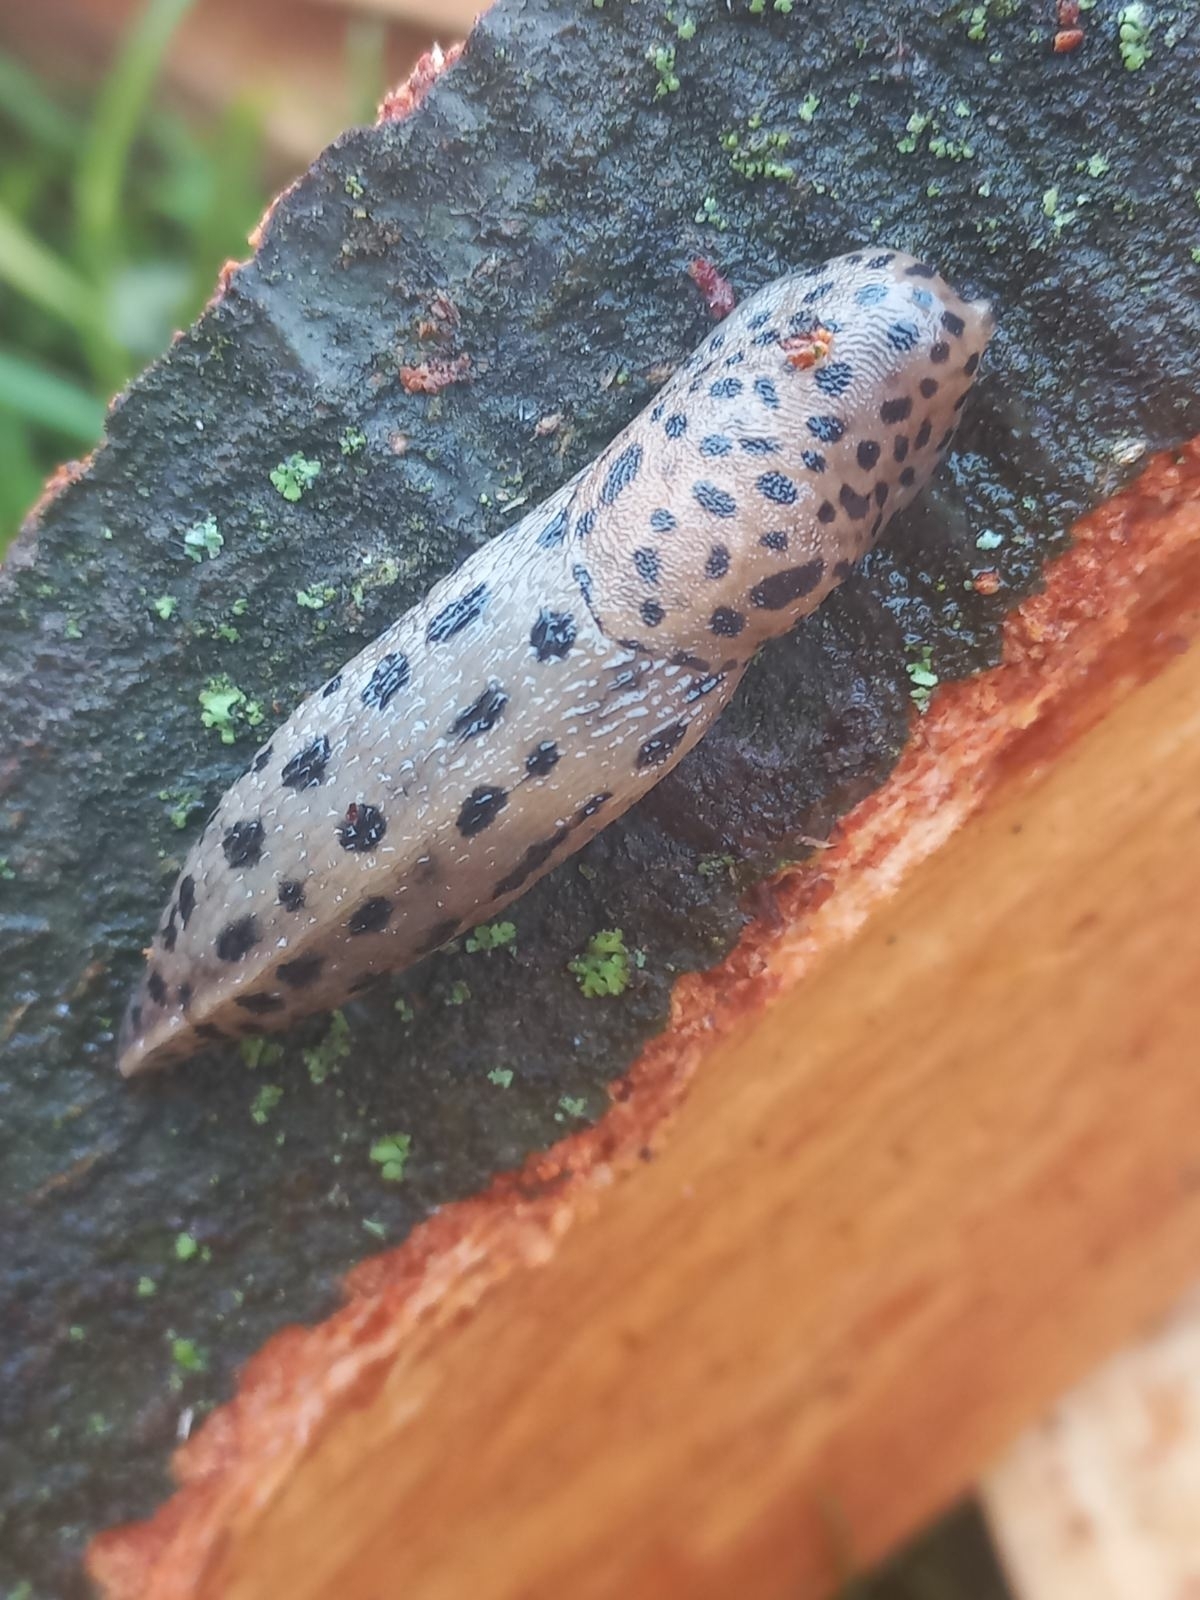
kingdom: Animalia
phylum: Mollusca
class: Gastropoda
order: Stylommatophora
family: Limacidae
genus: Limax
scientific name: Limax maximus
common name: Great grey slug
